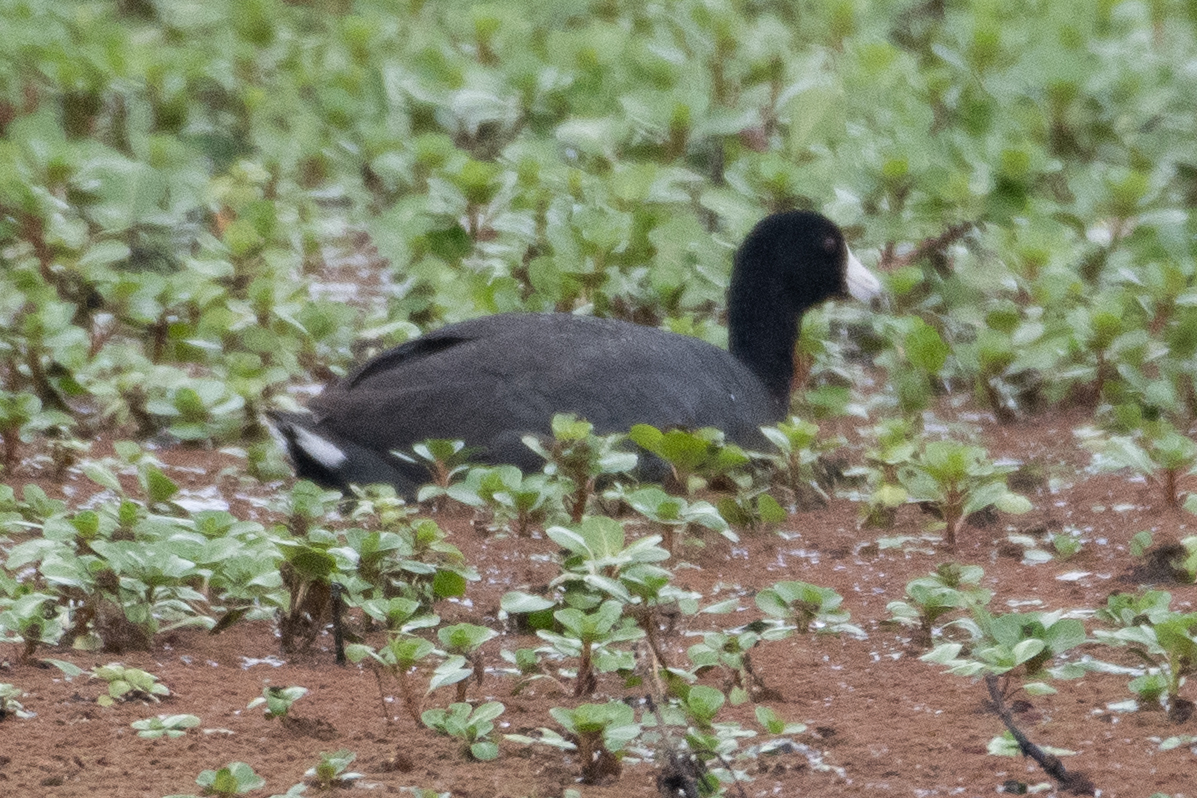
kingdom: Animalia
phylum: Chordata
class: Aves
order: Gruiformes
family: Rallidae
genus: Fulica
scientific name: Fulica americana
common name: American coot
